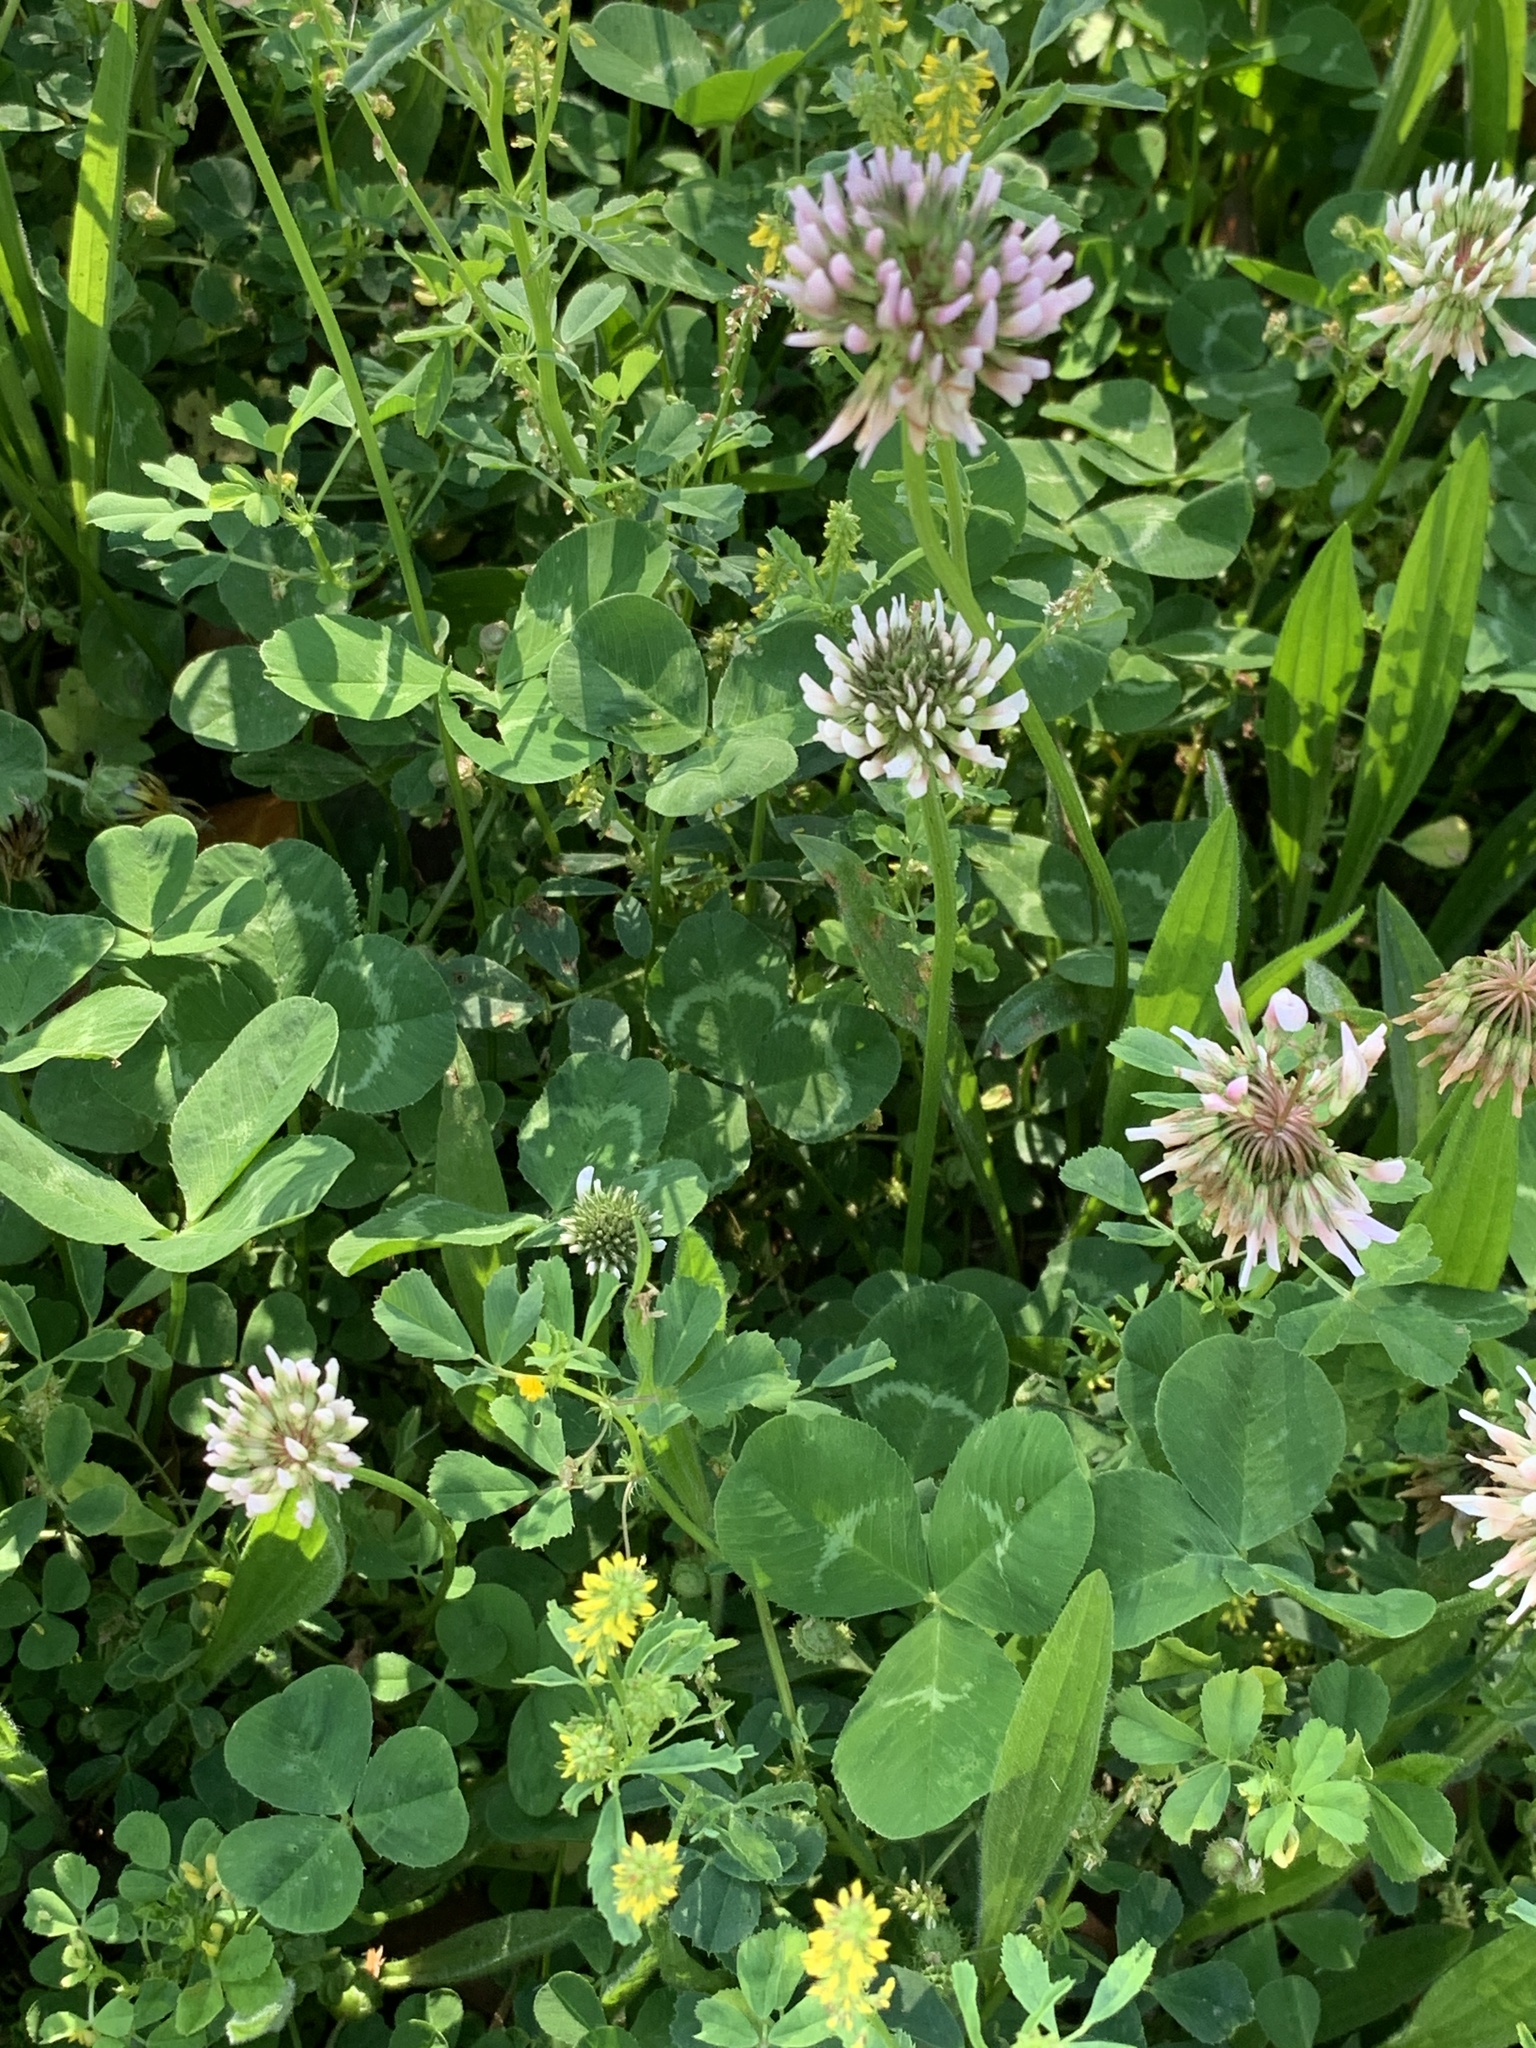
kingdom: Plantae
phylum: Tracheophyta
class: Magnoliopsida
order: Fabales
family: Fabaceae
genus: Trifolium
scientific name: Trifolium repens
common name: White clover
